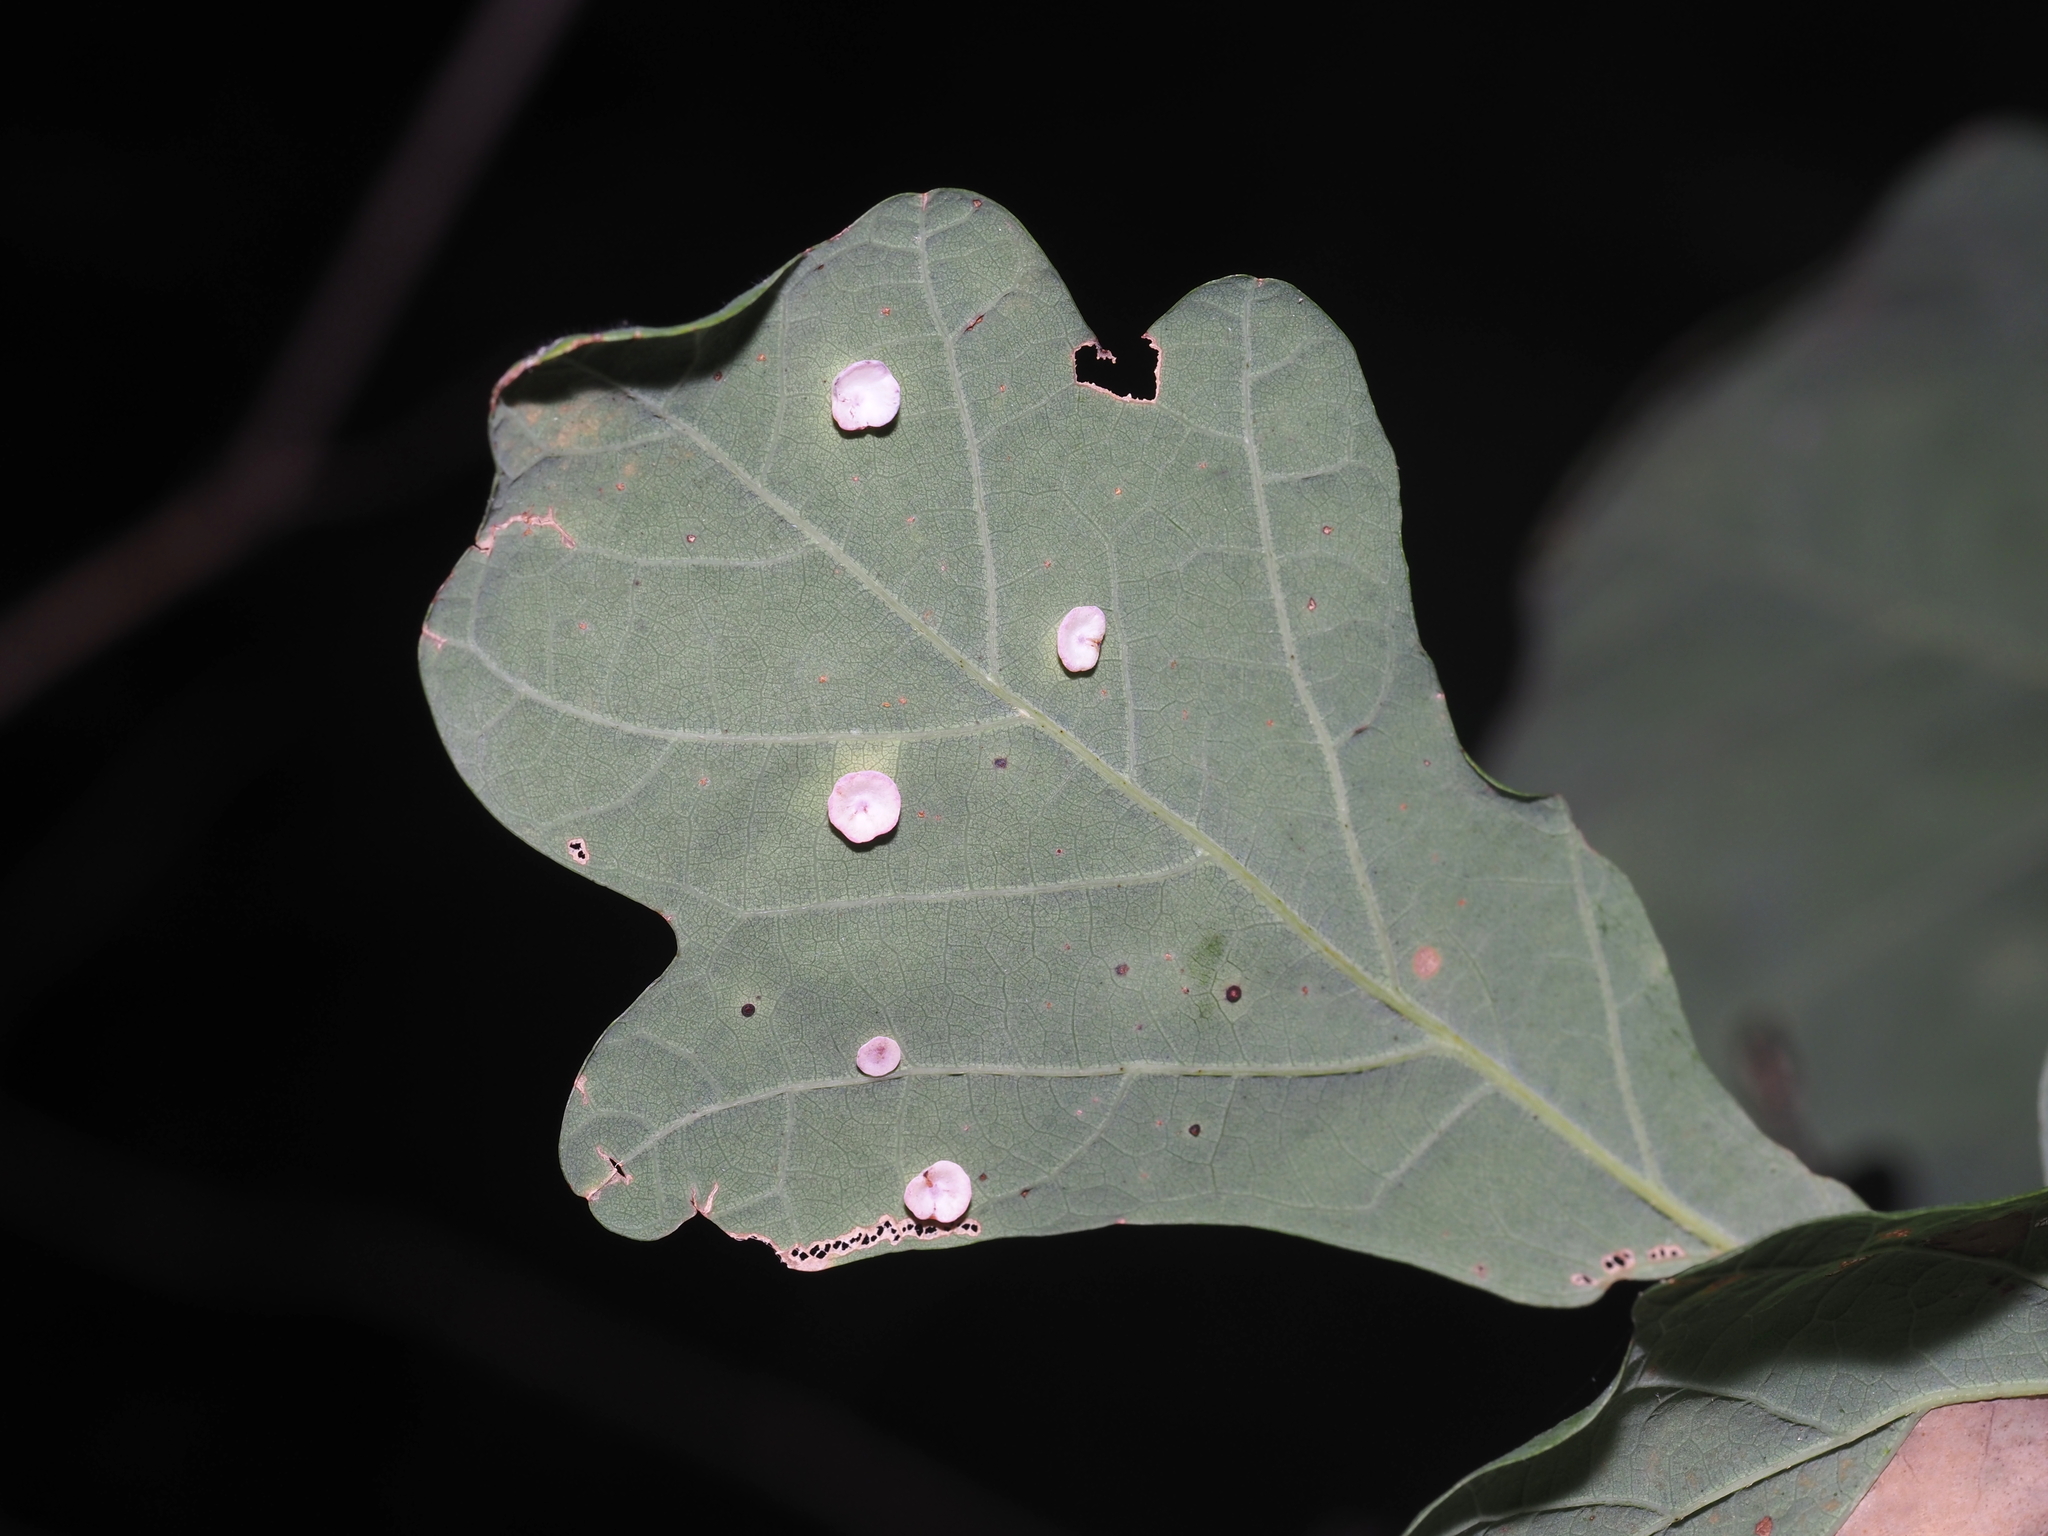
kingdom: Animalia
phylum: Arthropoda
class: Insecta
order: Hymenoptera
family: Cynipidae
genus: Phylloteras
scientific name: Phylloteras poculum
